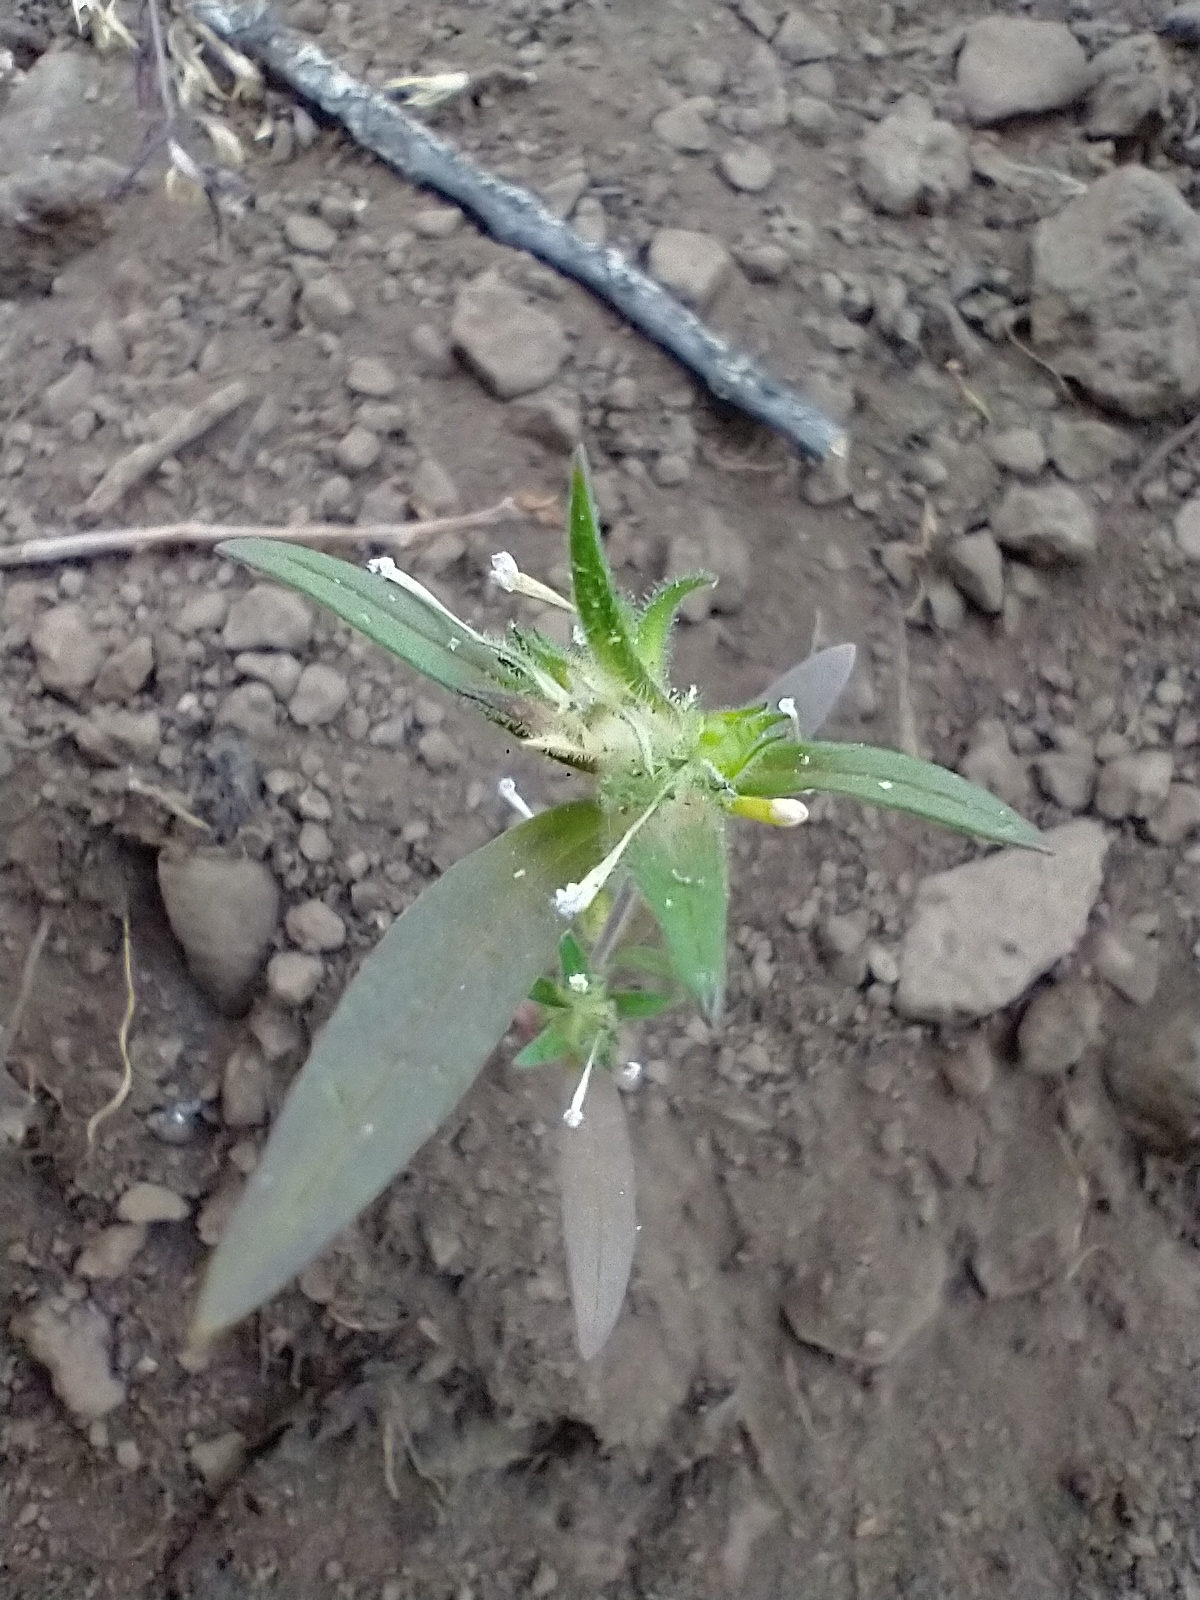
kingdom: Plantae
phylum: Tracheophyta
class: Magnoliopsida
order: Ericales
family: Polemoniaceae
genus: Collomia
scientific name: Collomia linearis
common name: Tiny trumpet
